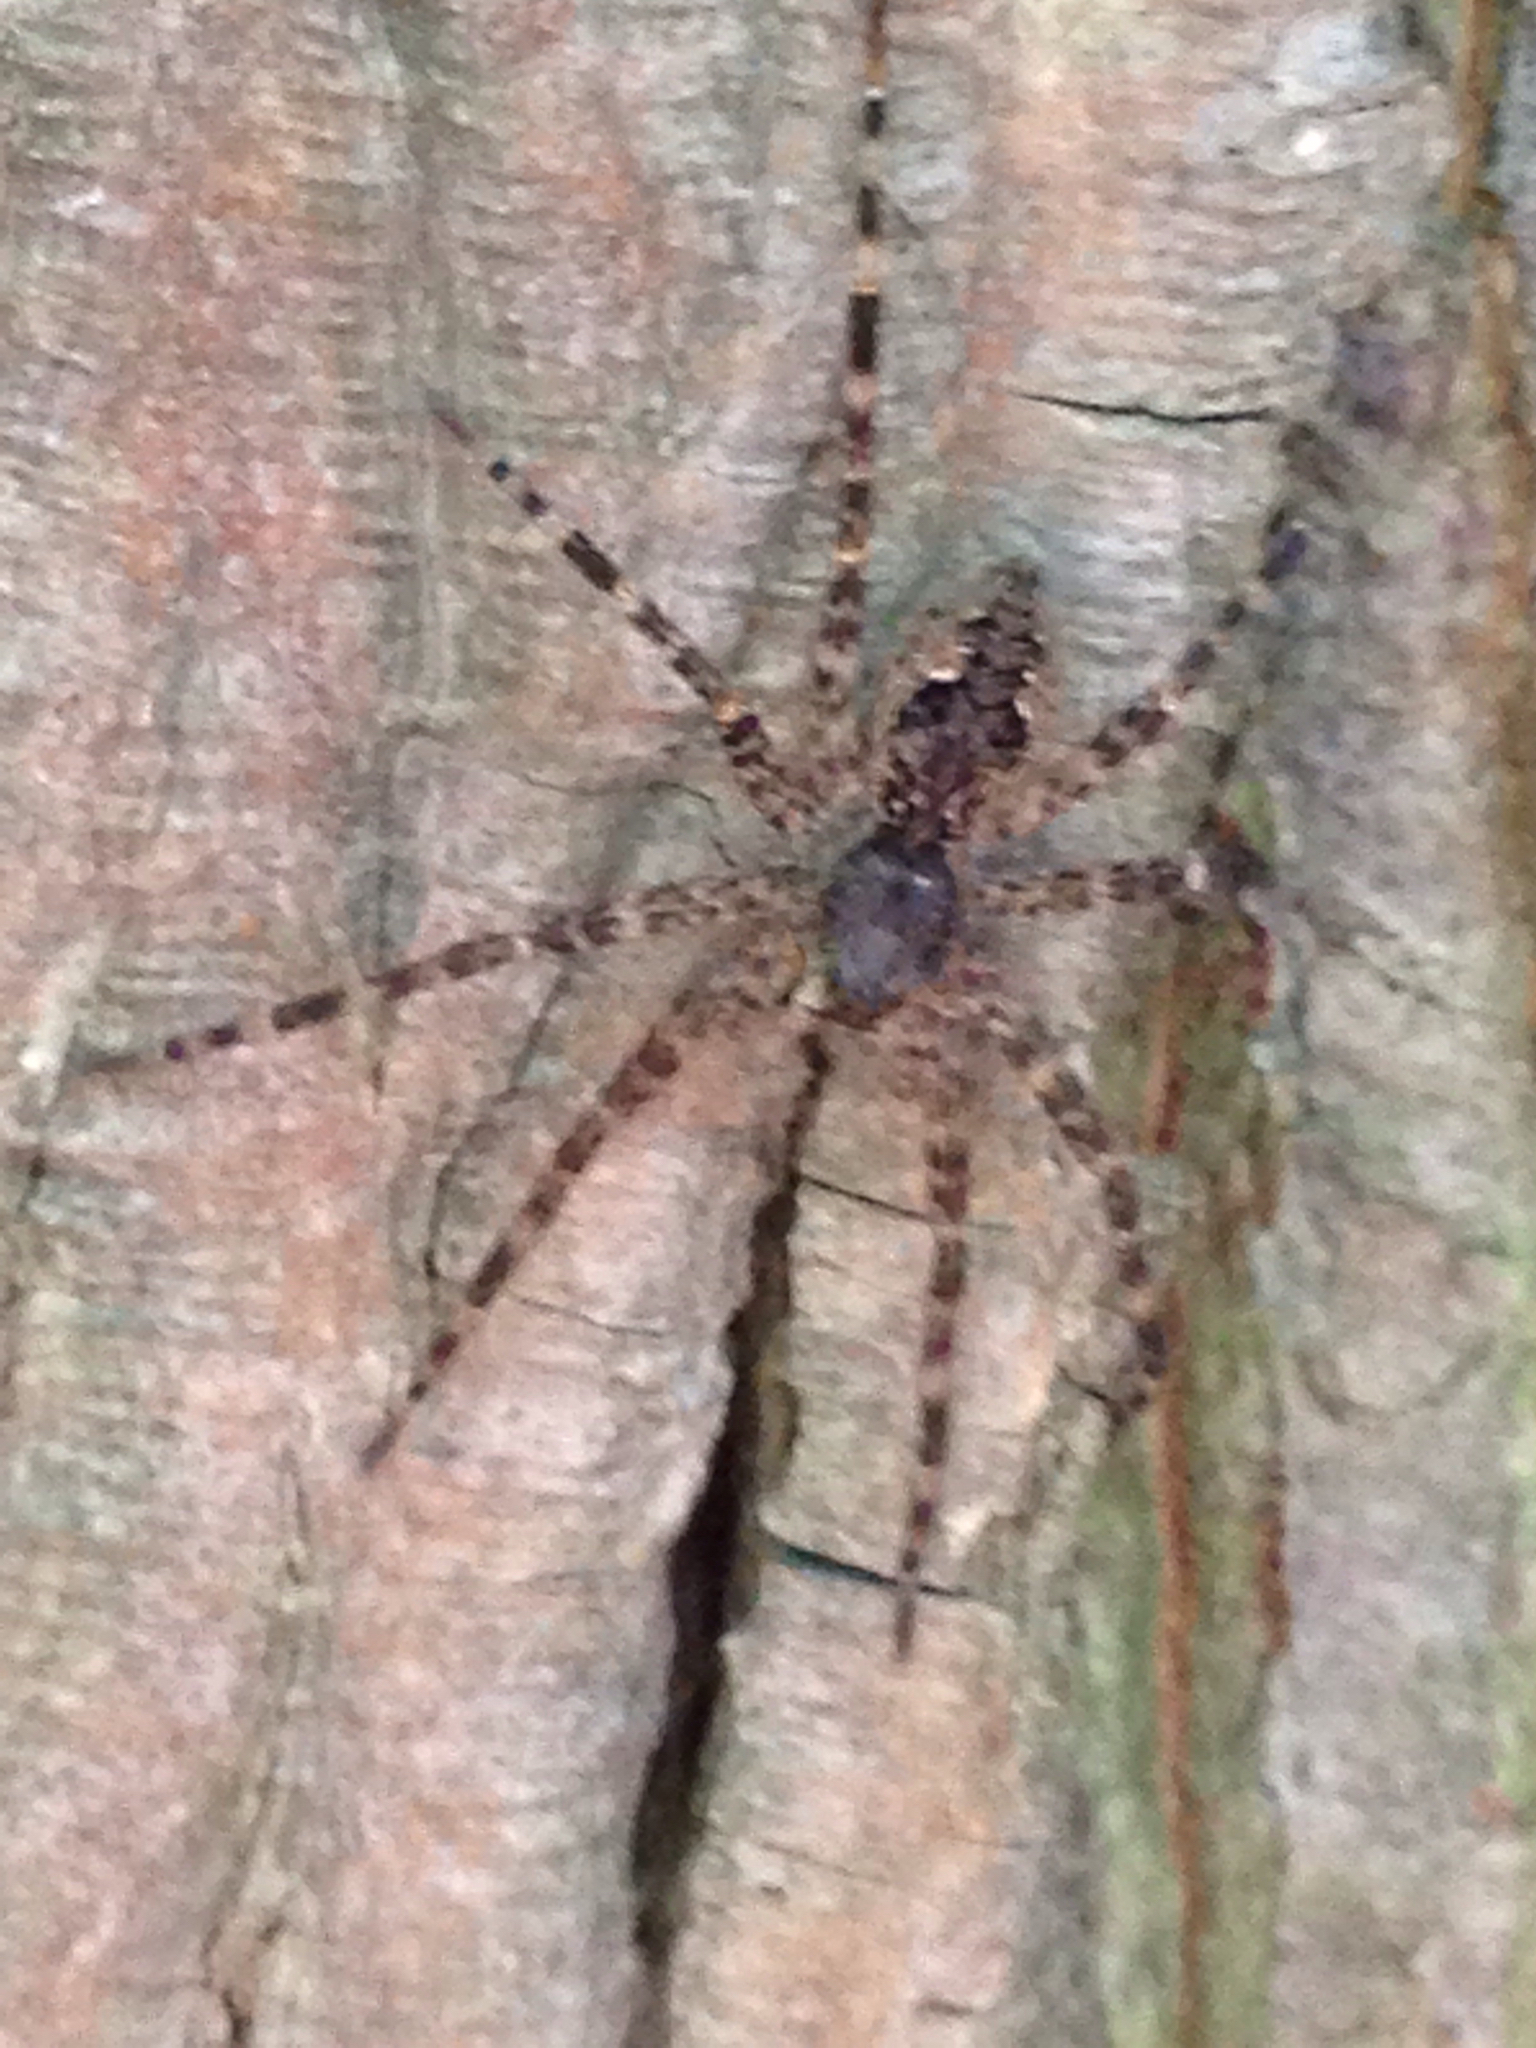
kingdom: Animalia
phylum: Arthropoda
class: Arachnida
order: Araneae
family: Pisauridae
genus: Dolomedes
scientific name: Dolomedes tenebrosus
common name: Dark fishing spider
